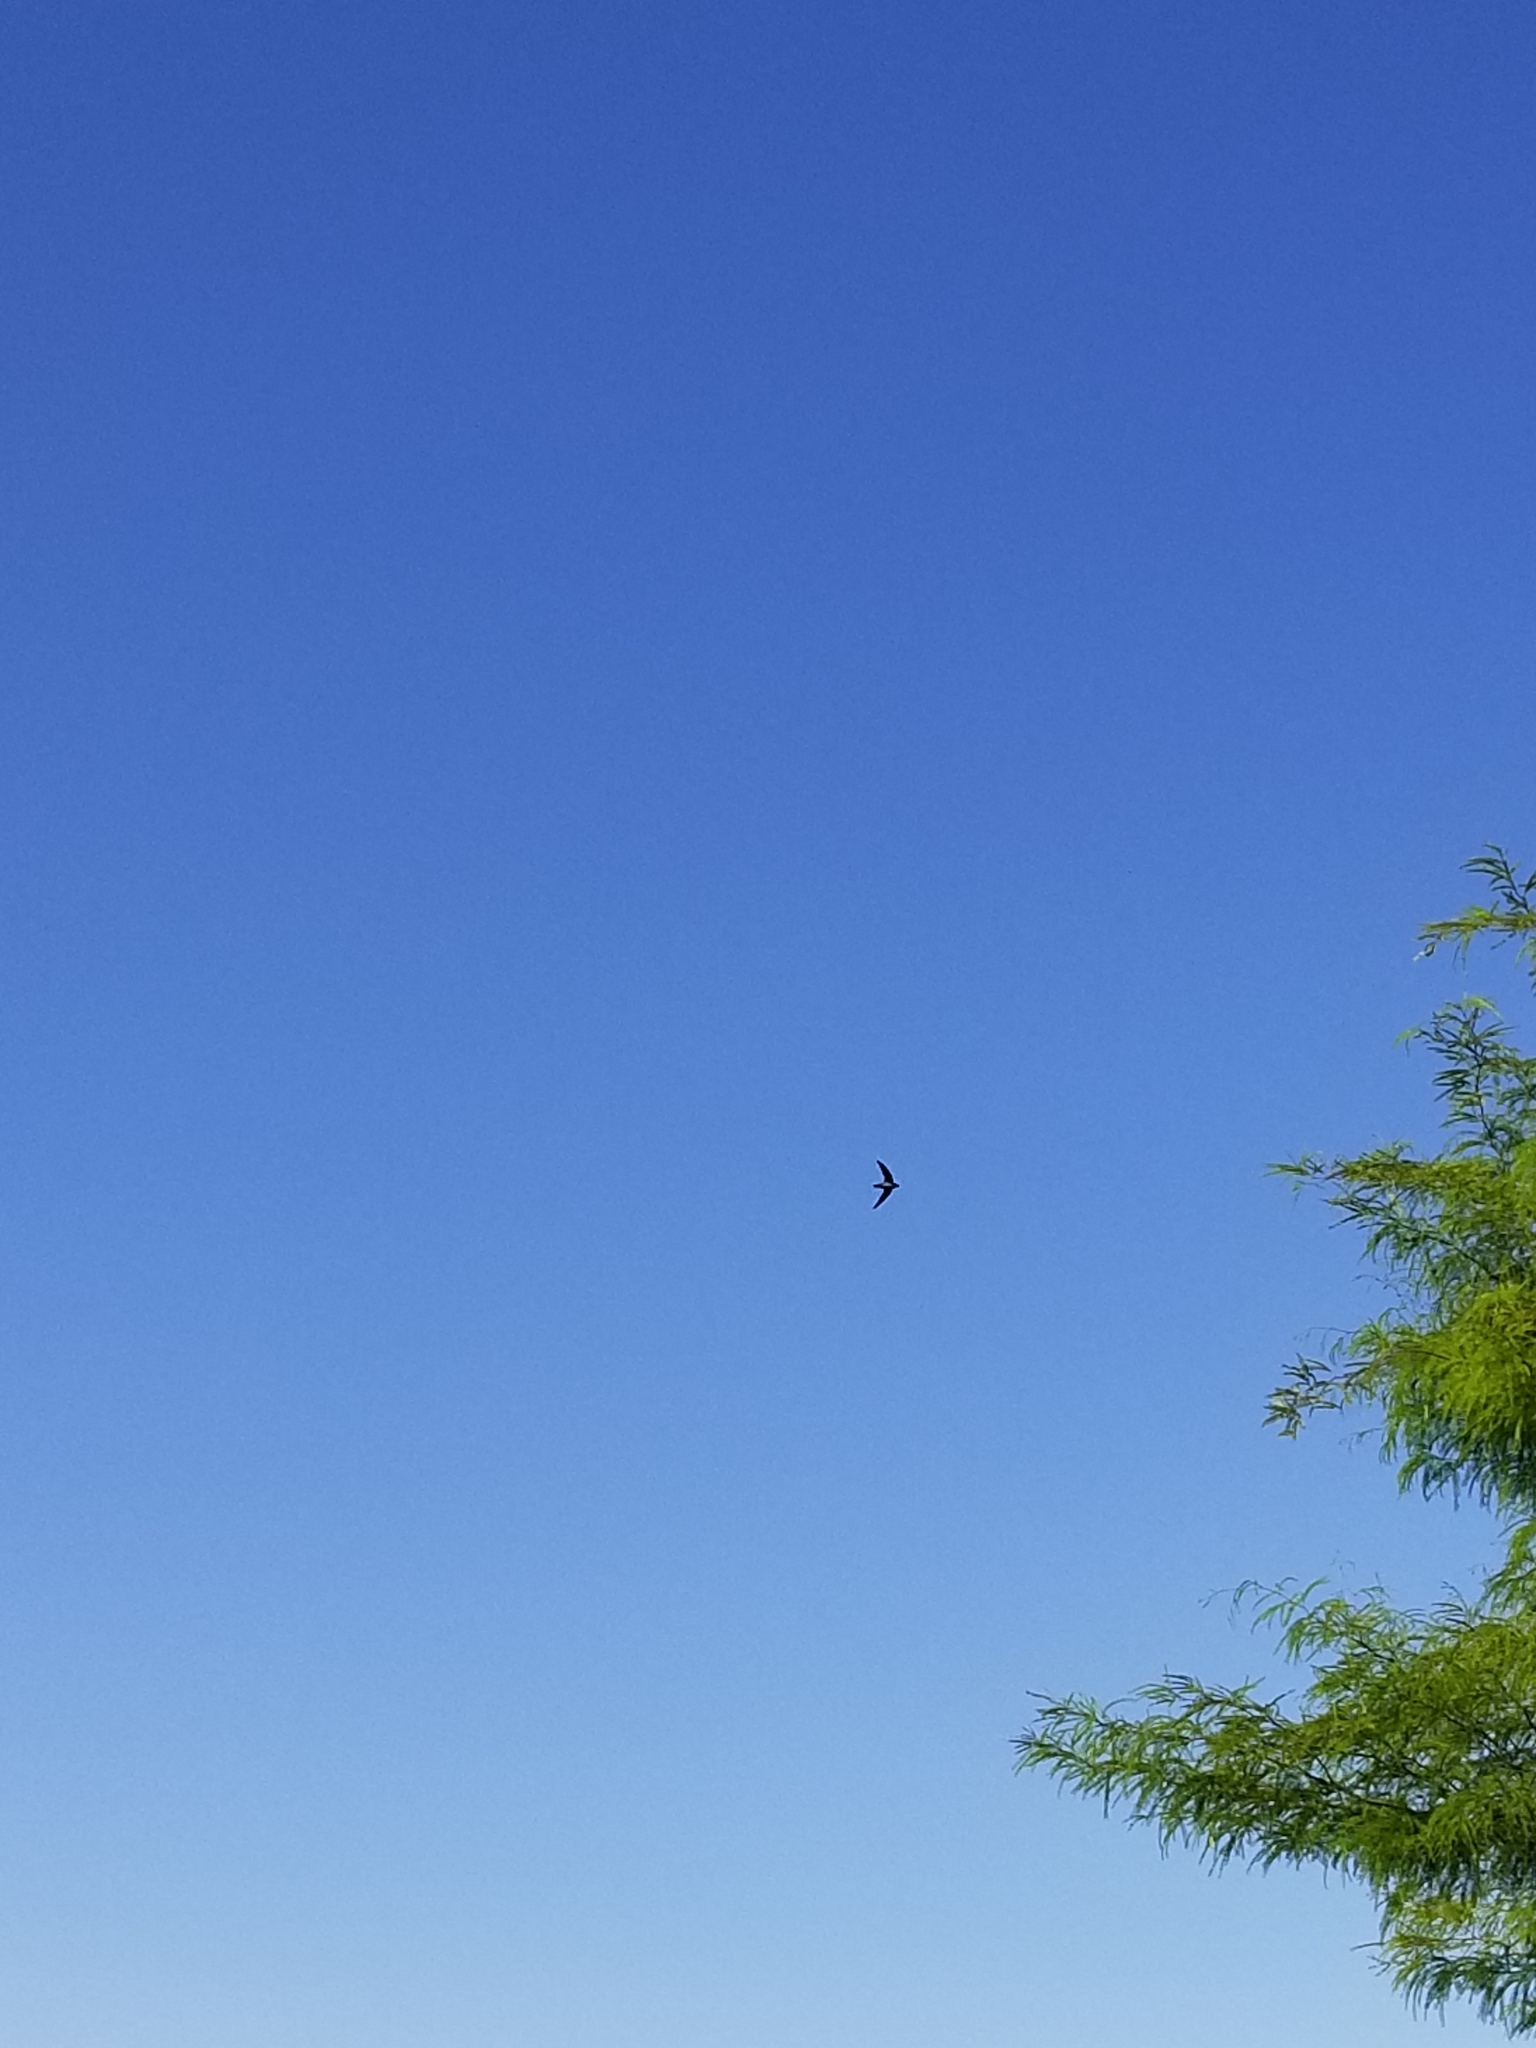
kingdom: Animalia
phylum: Chordata
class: Aves
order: Apodiformes
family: Apodidae
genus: Chaetura
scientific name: Chaetura vauxi
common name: Vaux's swift
